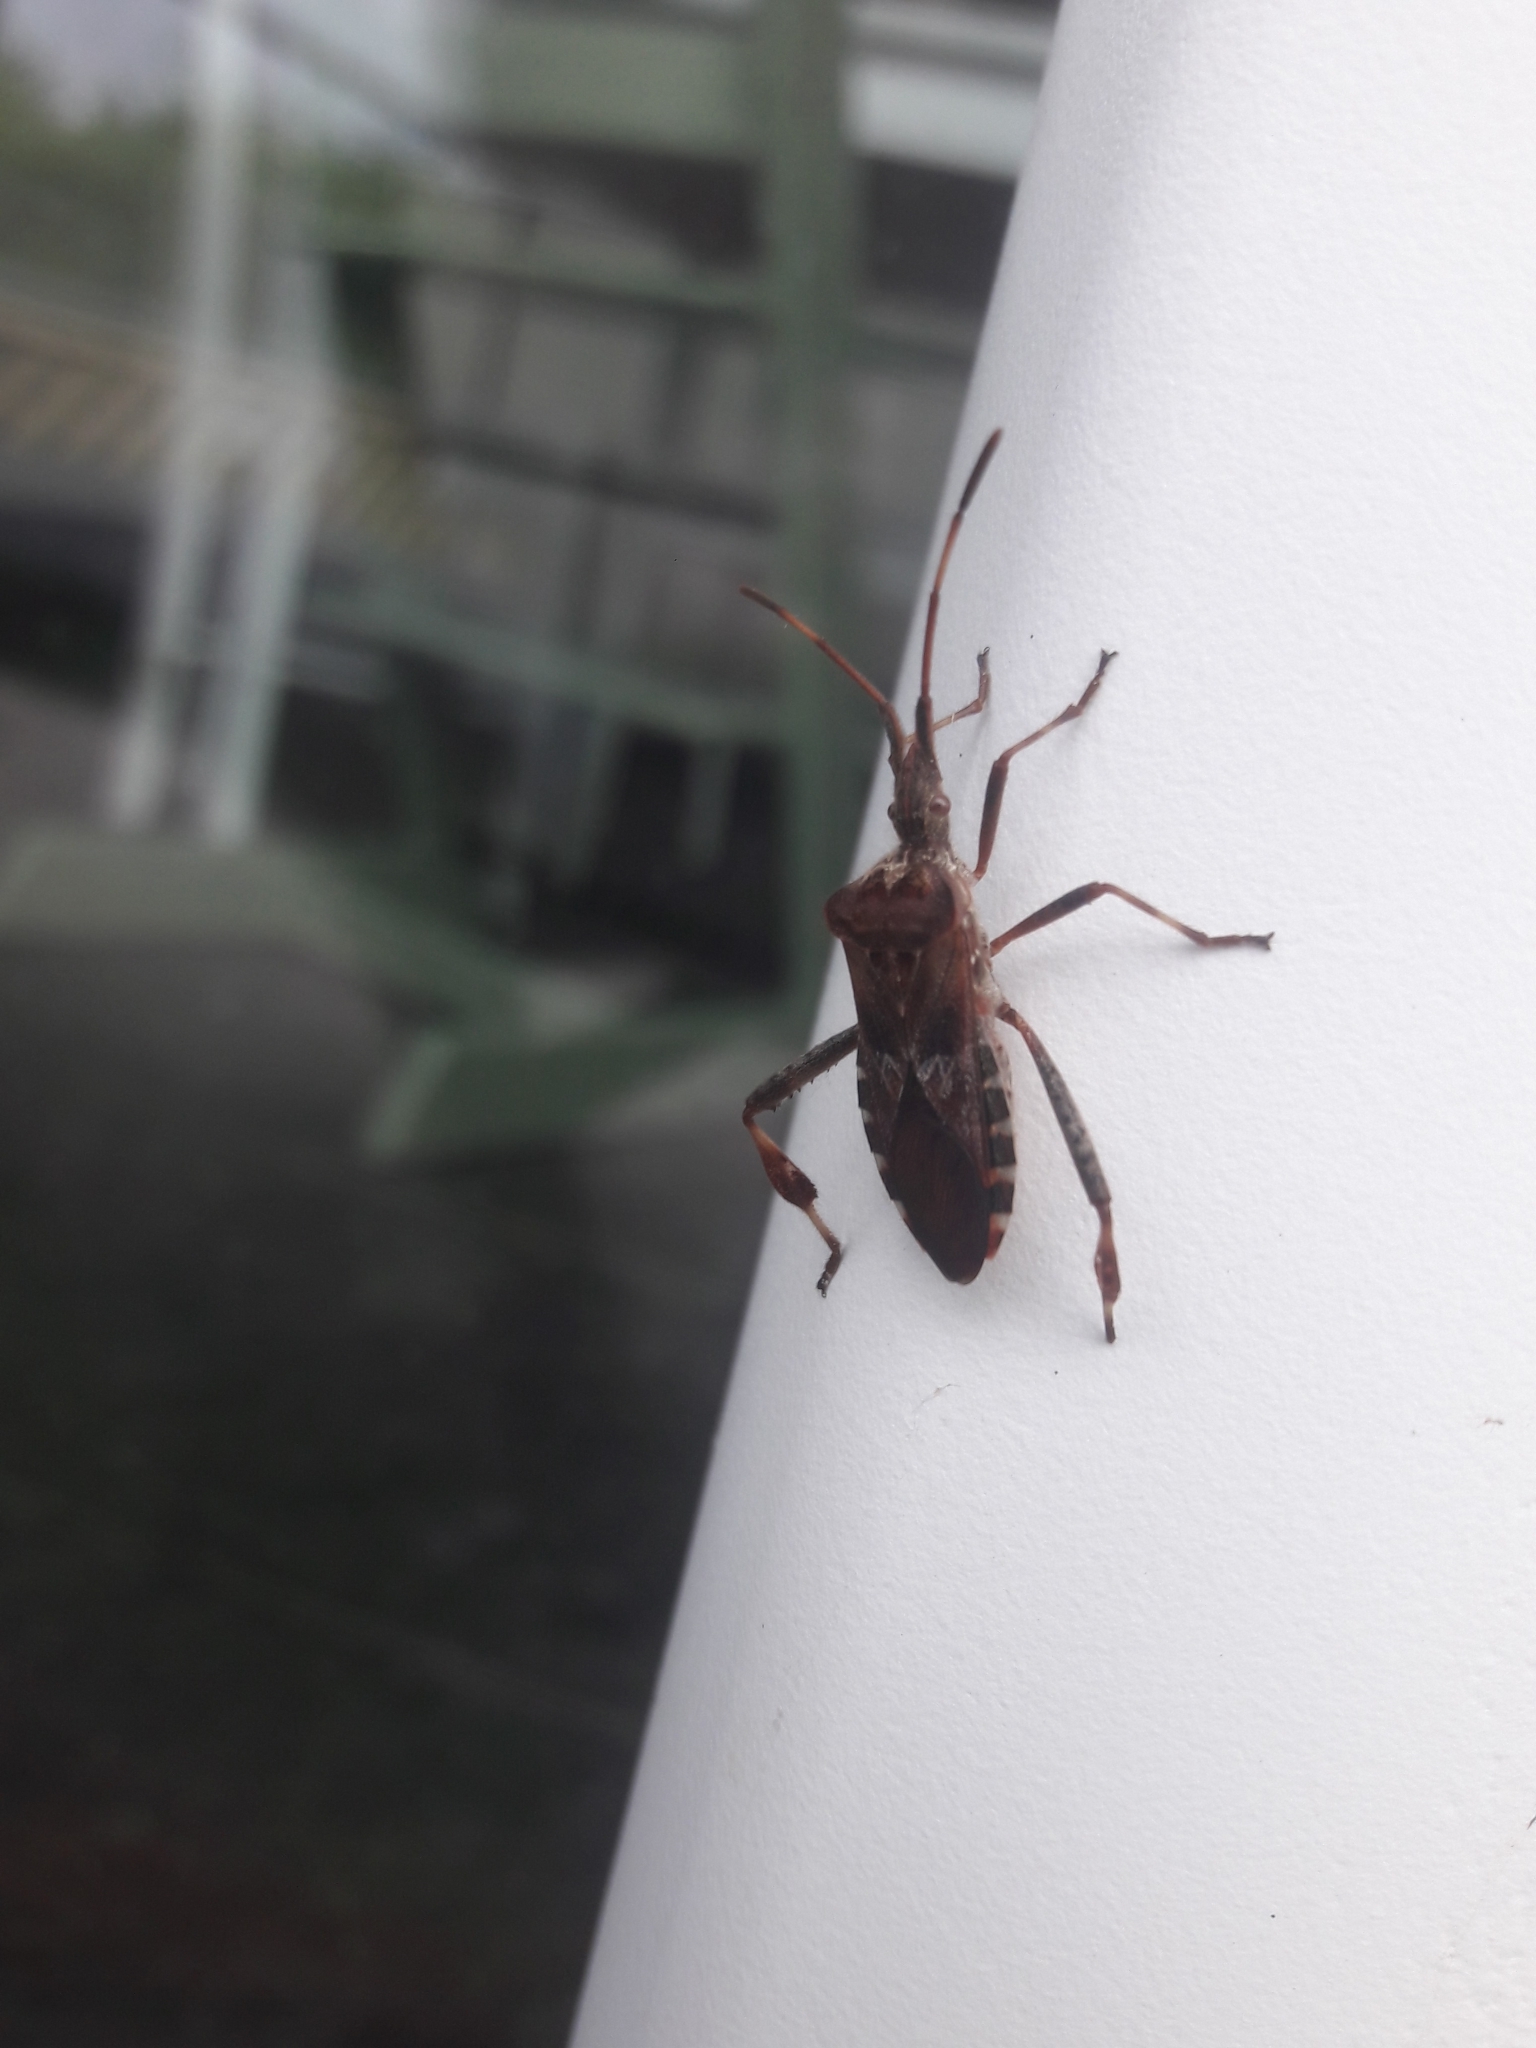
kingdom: Animalia
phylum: Arthropoda
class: Insecta
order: Hemiptera
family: Coreidae
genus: Leptoglossus
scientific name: Leptoglossus occidentalis
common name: Western conifer-seed bug
